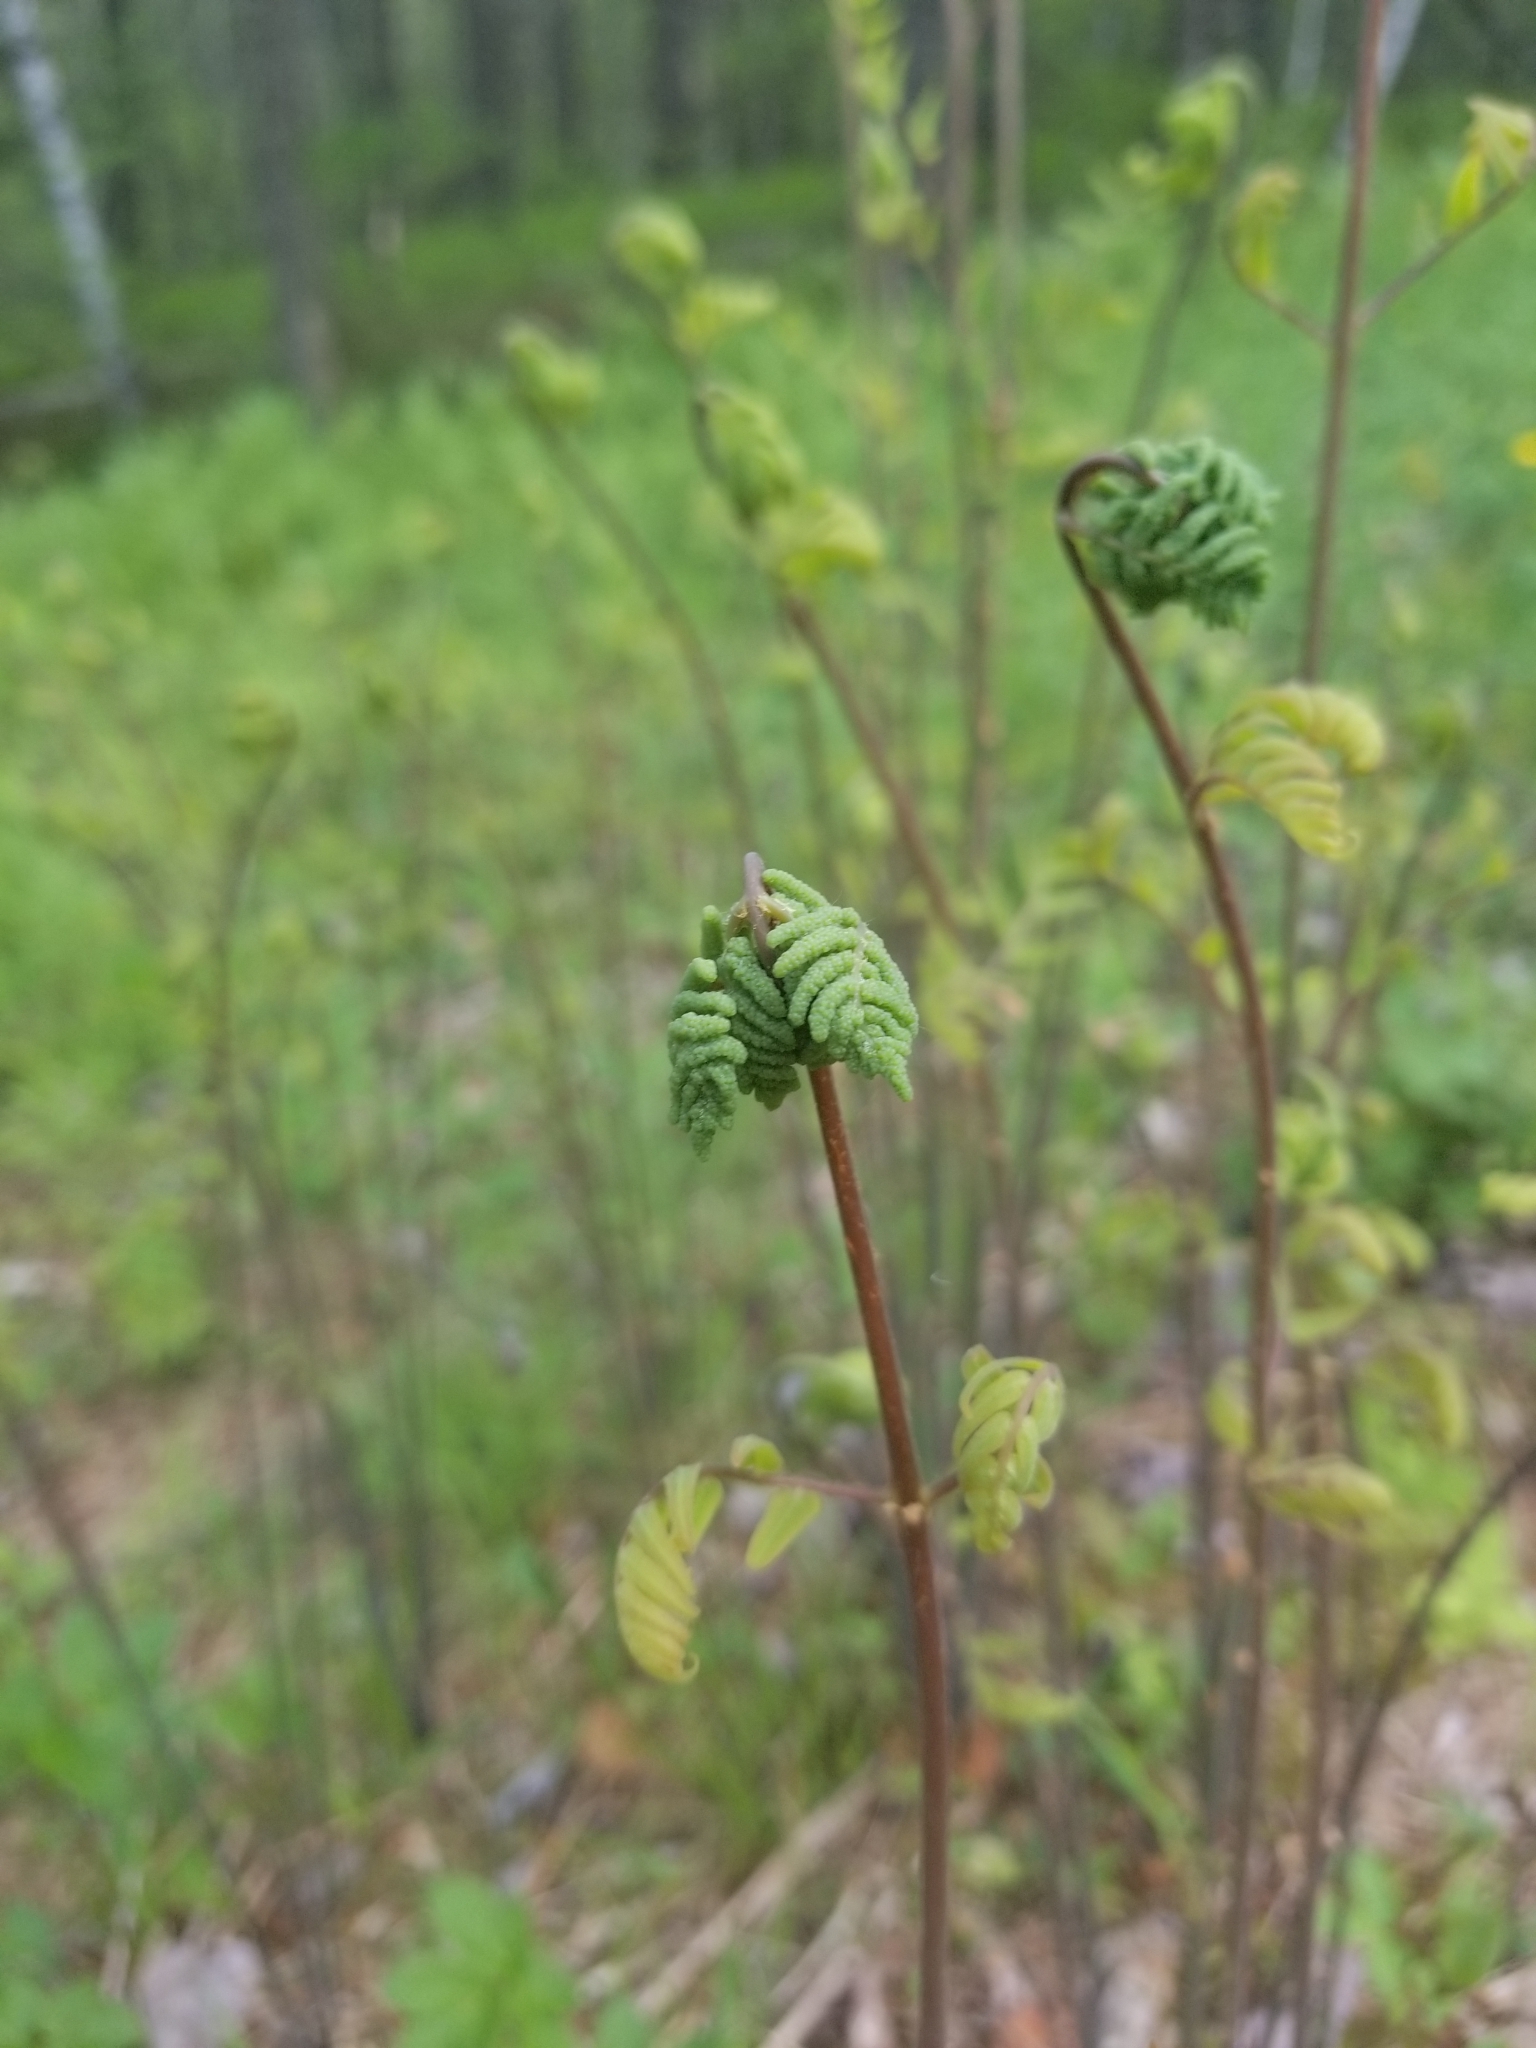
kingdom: Plantae
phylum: Tracheophyta
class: Polypodiopsida
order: Osmundales
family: Osmundaceae
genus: Osmunda
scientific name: Osmunda spectabilis
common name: American royal fern
